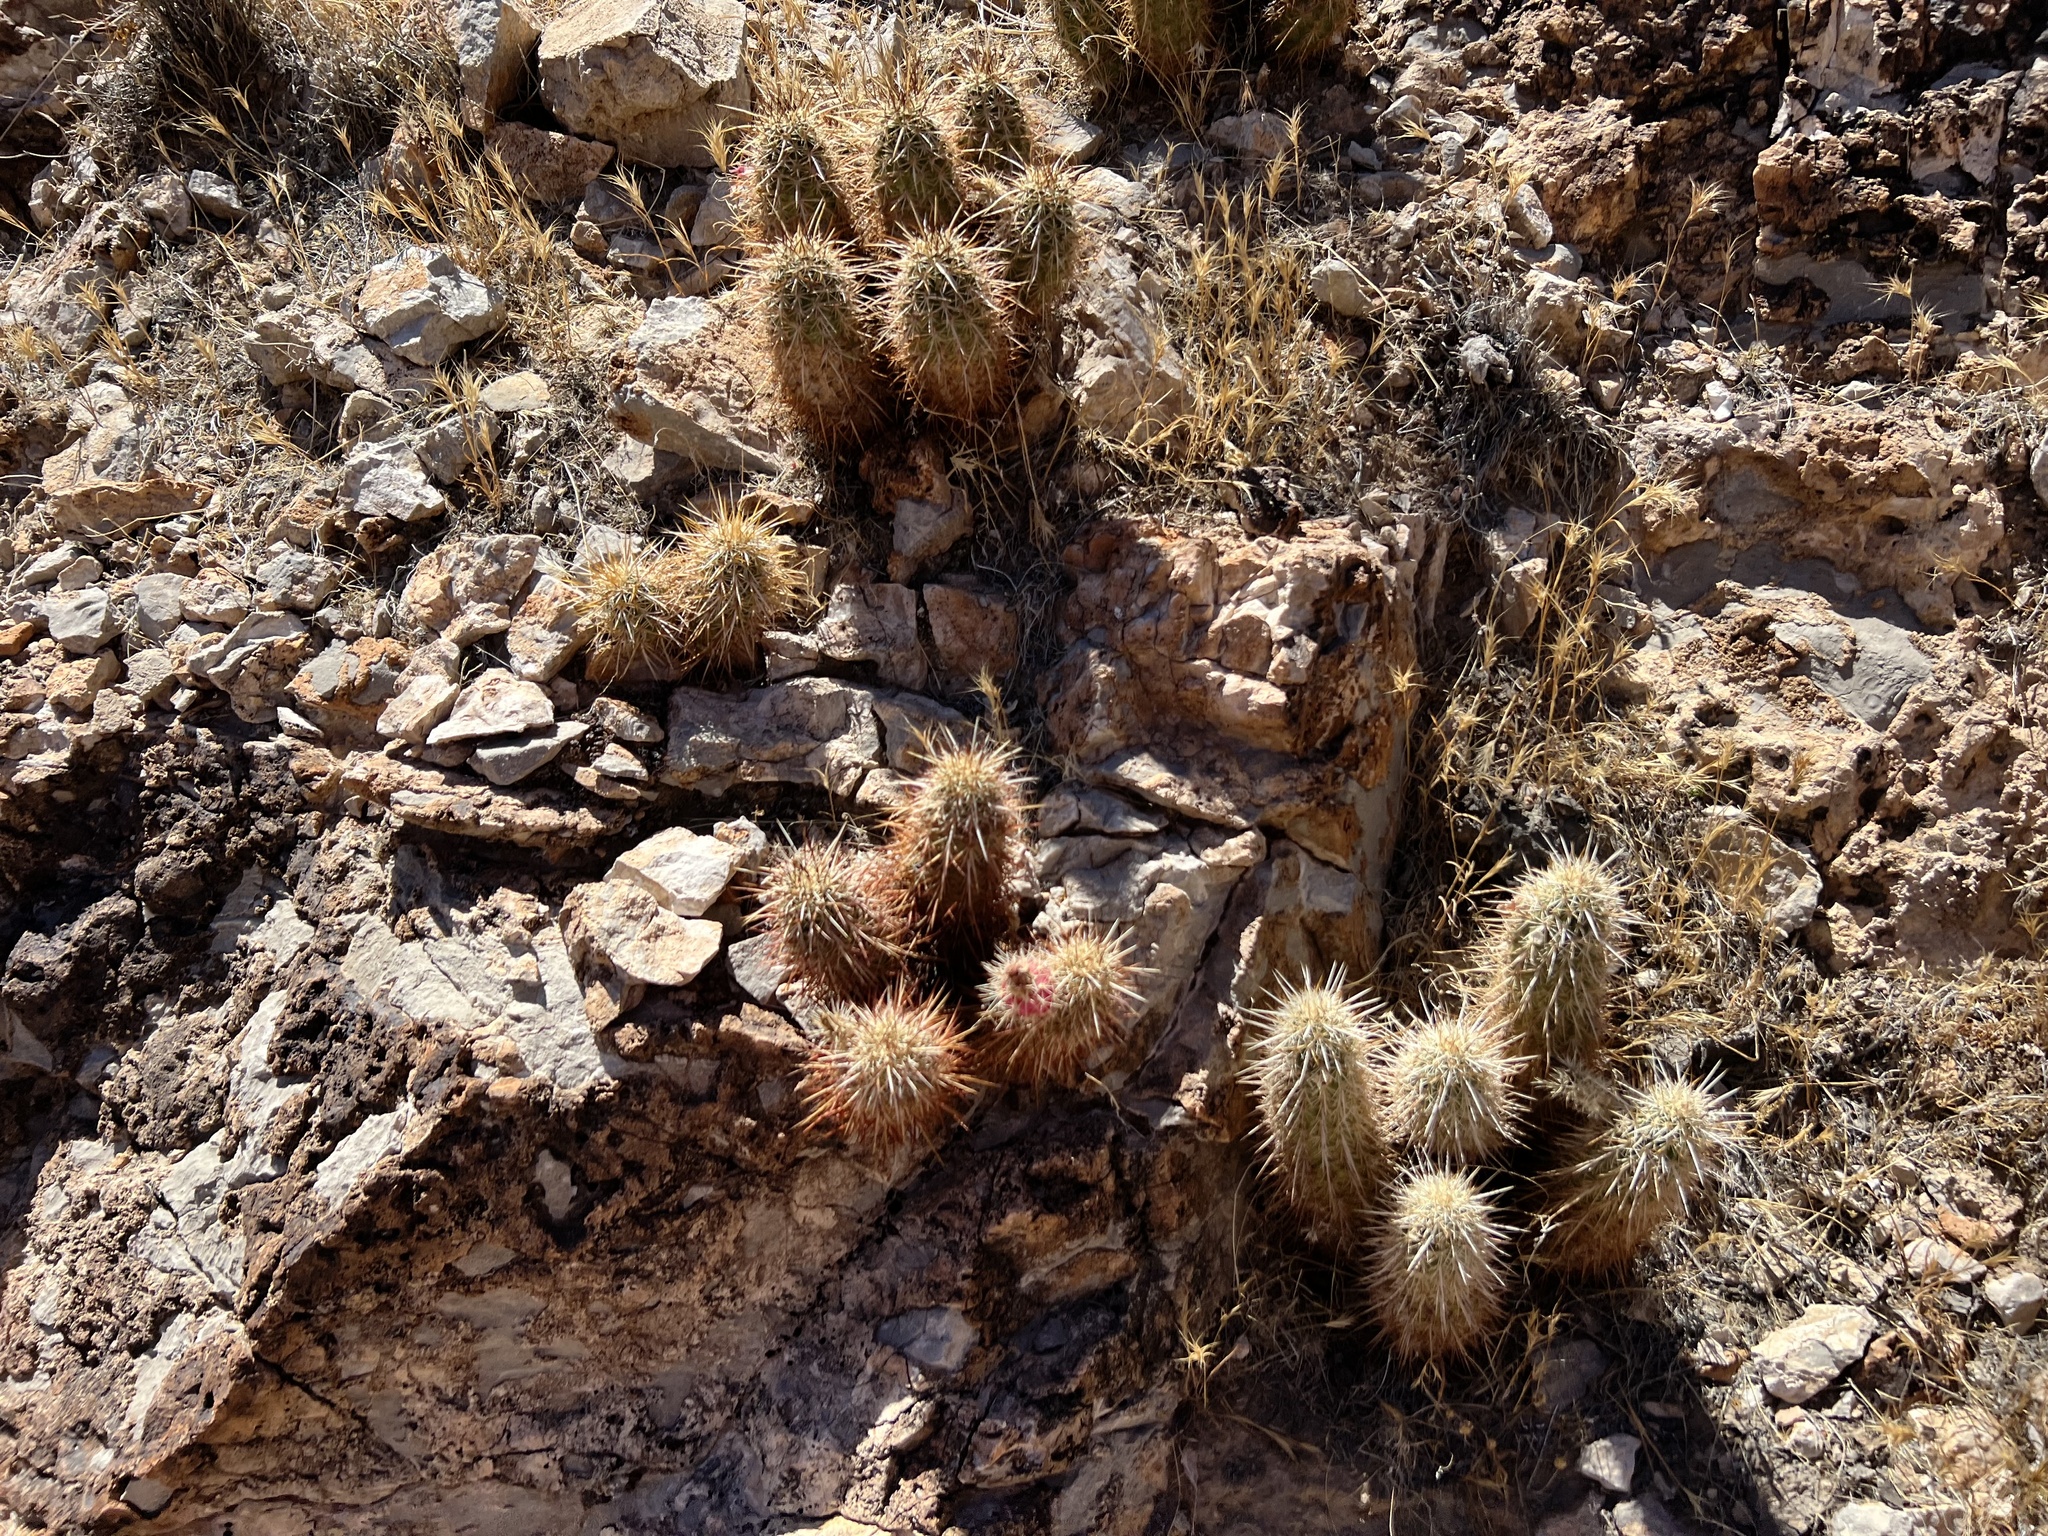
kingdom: Plantae
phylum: Tracheophyta
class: Magnoliopsida
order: Caryophyllales
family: Cactaceae
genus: Echinocereus
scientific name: Echinocereus engelmannii
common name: Engelmann's hedgehog cactus
